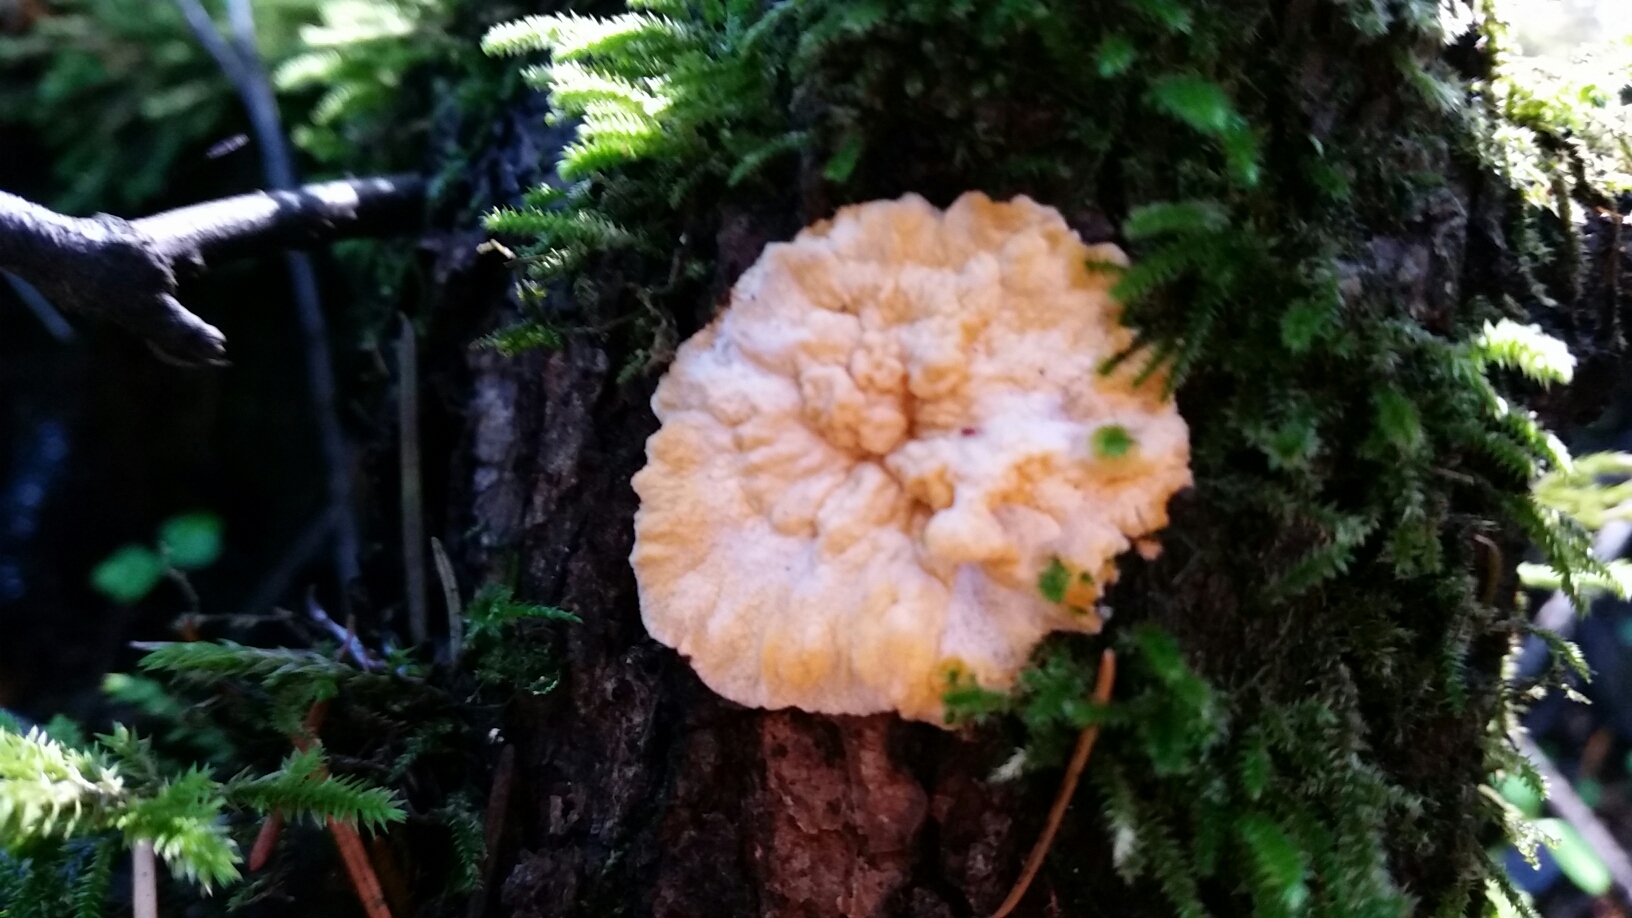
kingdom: Fungi
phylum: Basidiomycota
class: Agaricomycetes
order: Polyporales
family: Meruliaceae
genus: Phlebia
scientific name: Phlebia radiata
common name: Wrinkled crust
